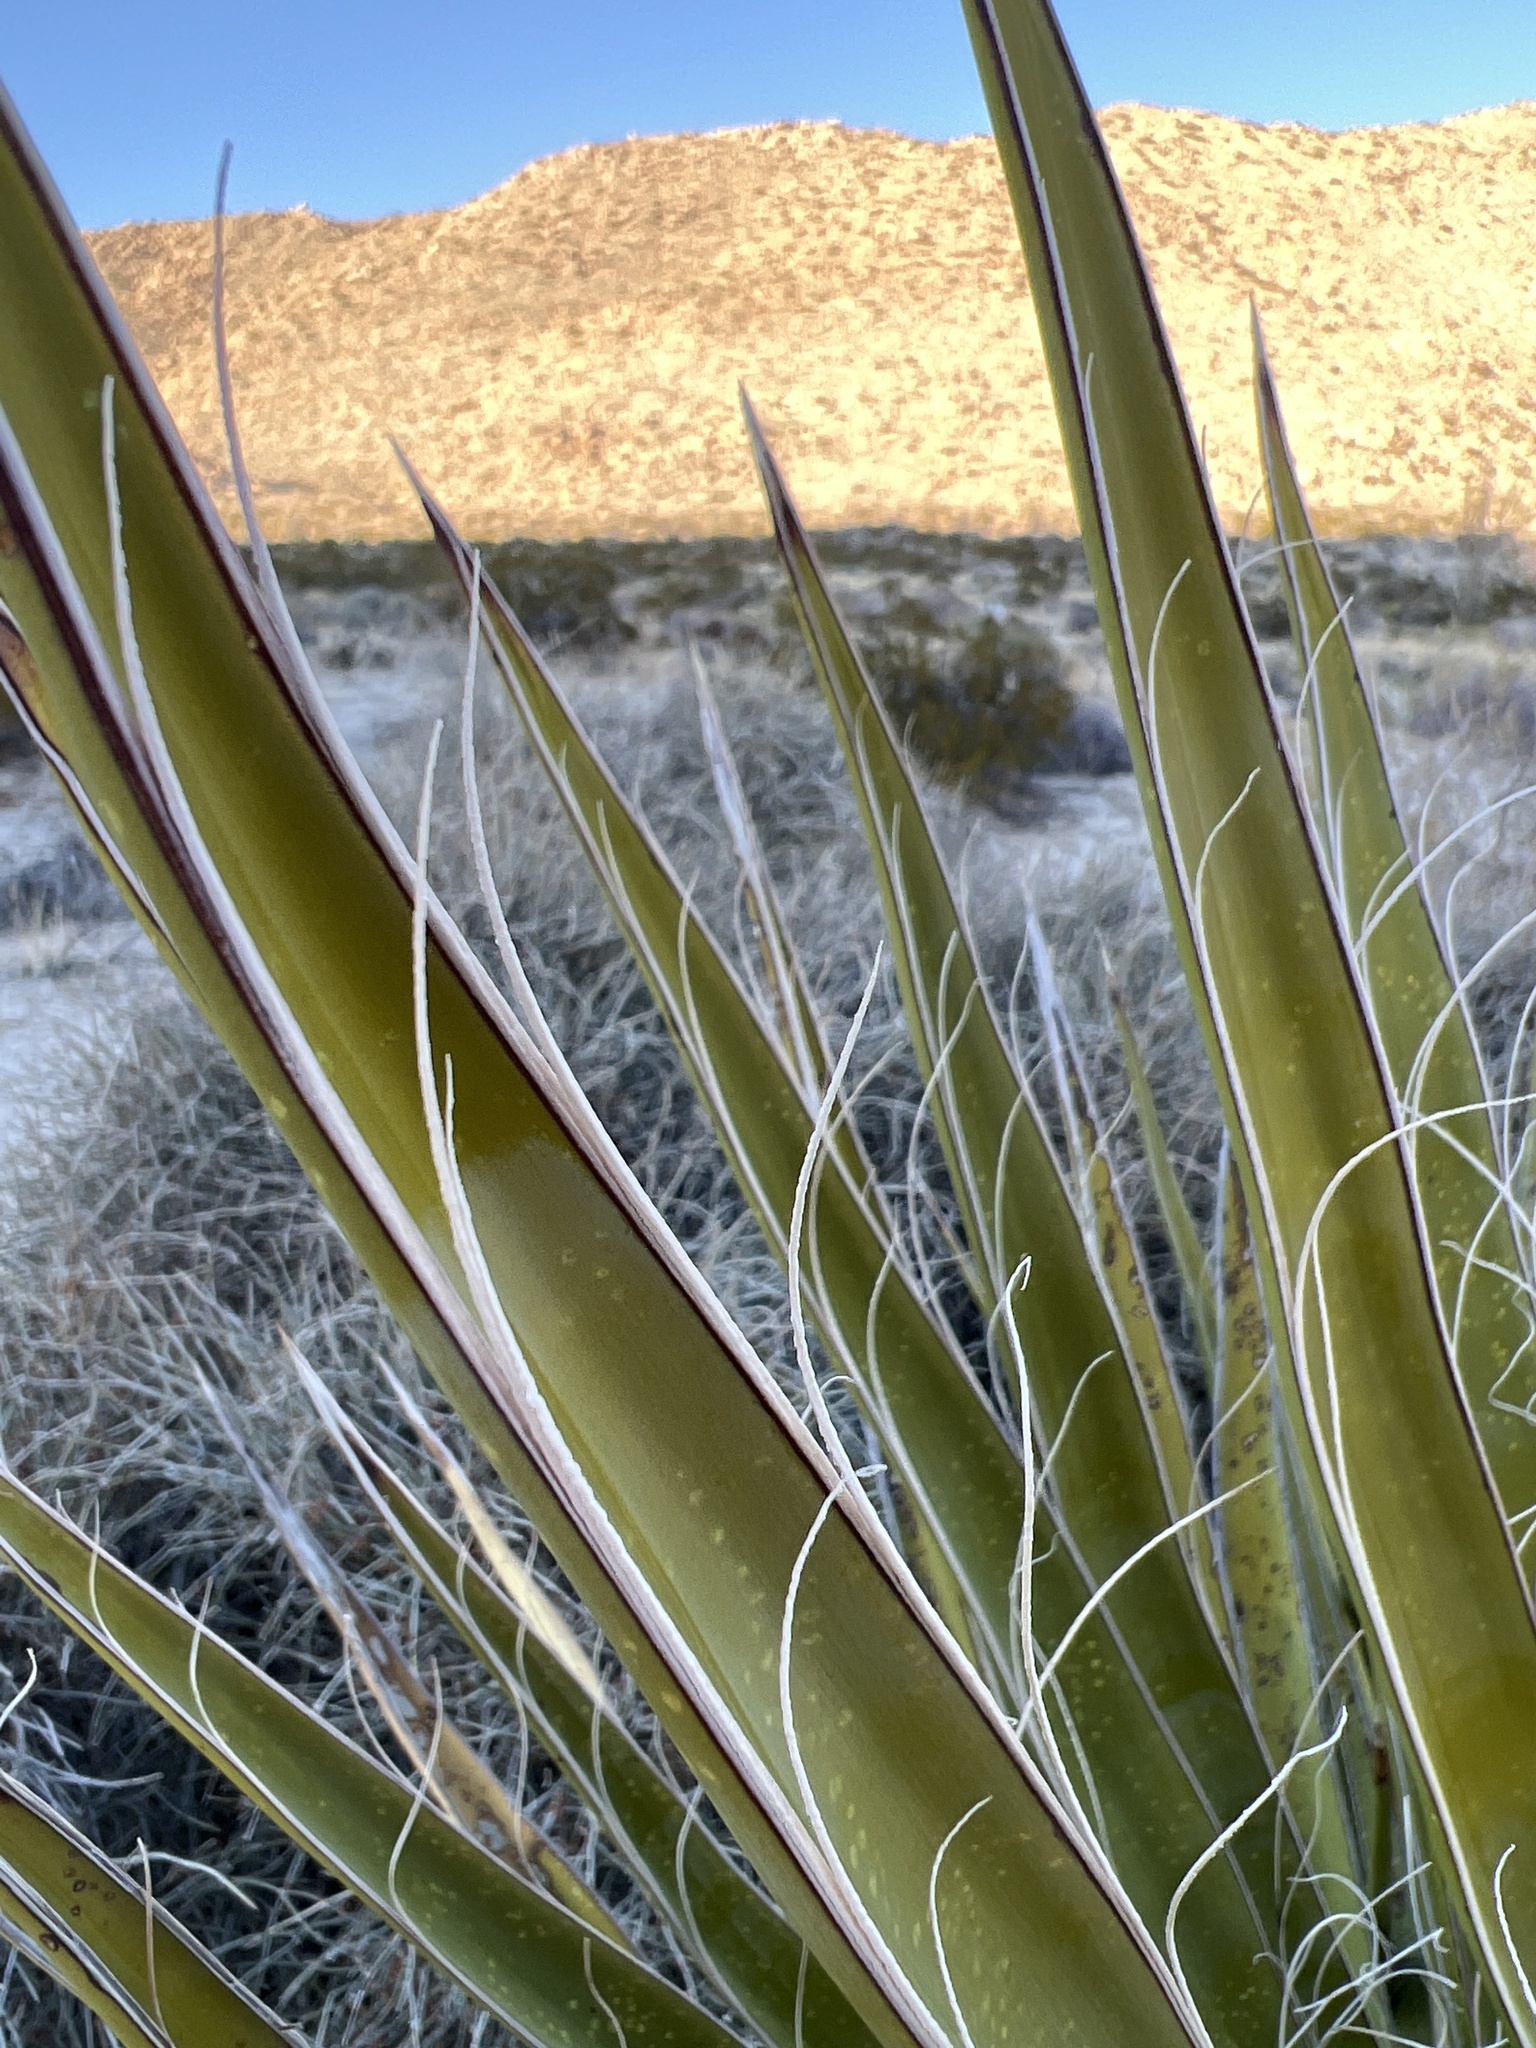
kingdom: Plantae
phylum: Tracheophyta
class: Liliopsida
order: Asparagales
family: Asparagaceae
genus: Yucca
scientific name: Yucca schidigera
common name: Mojave yucca
